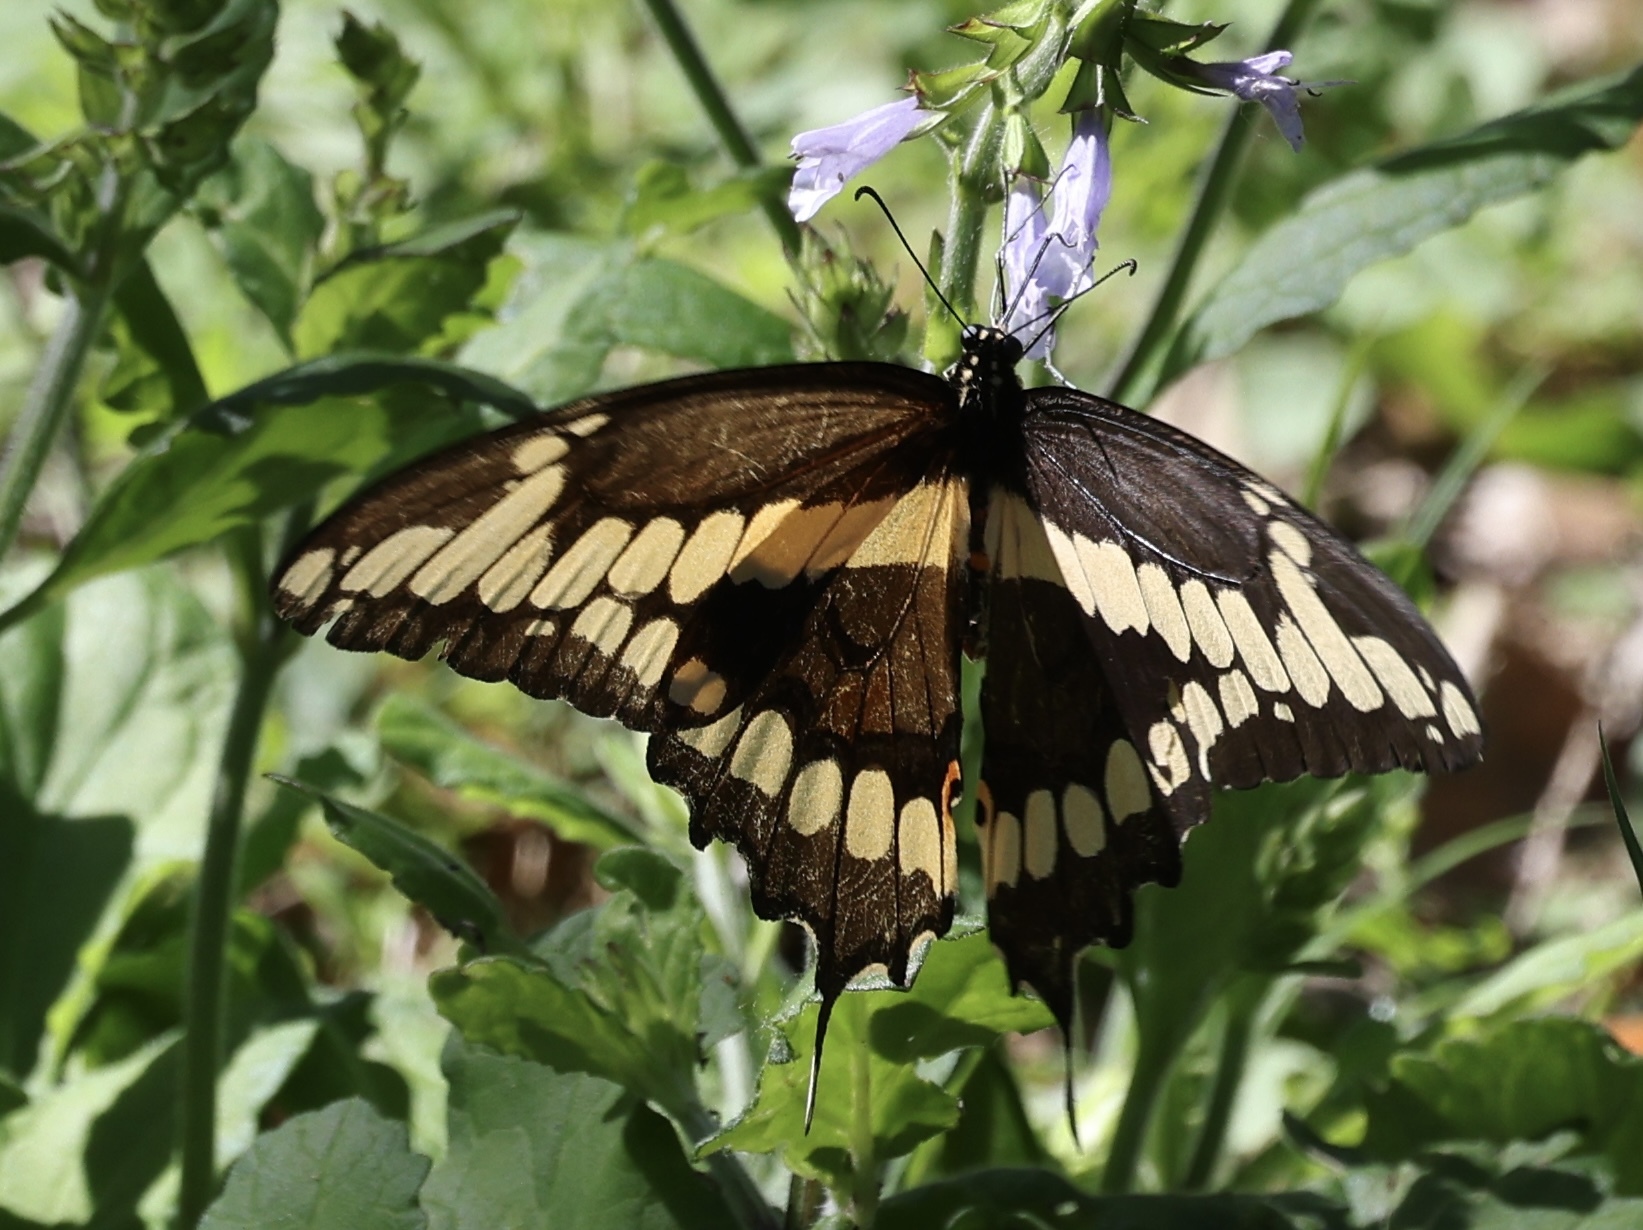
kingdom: Animalia
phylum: Arthropoda
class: Insecta
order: Lepidoptera
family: Papilionidae
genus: Papilio
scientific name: Papilio cresphontes
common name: Giant swallowtail
